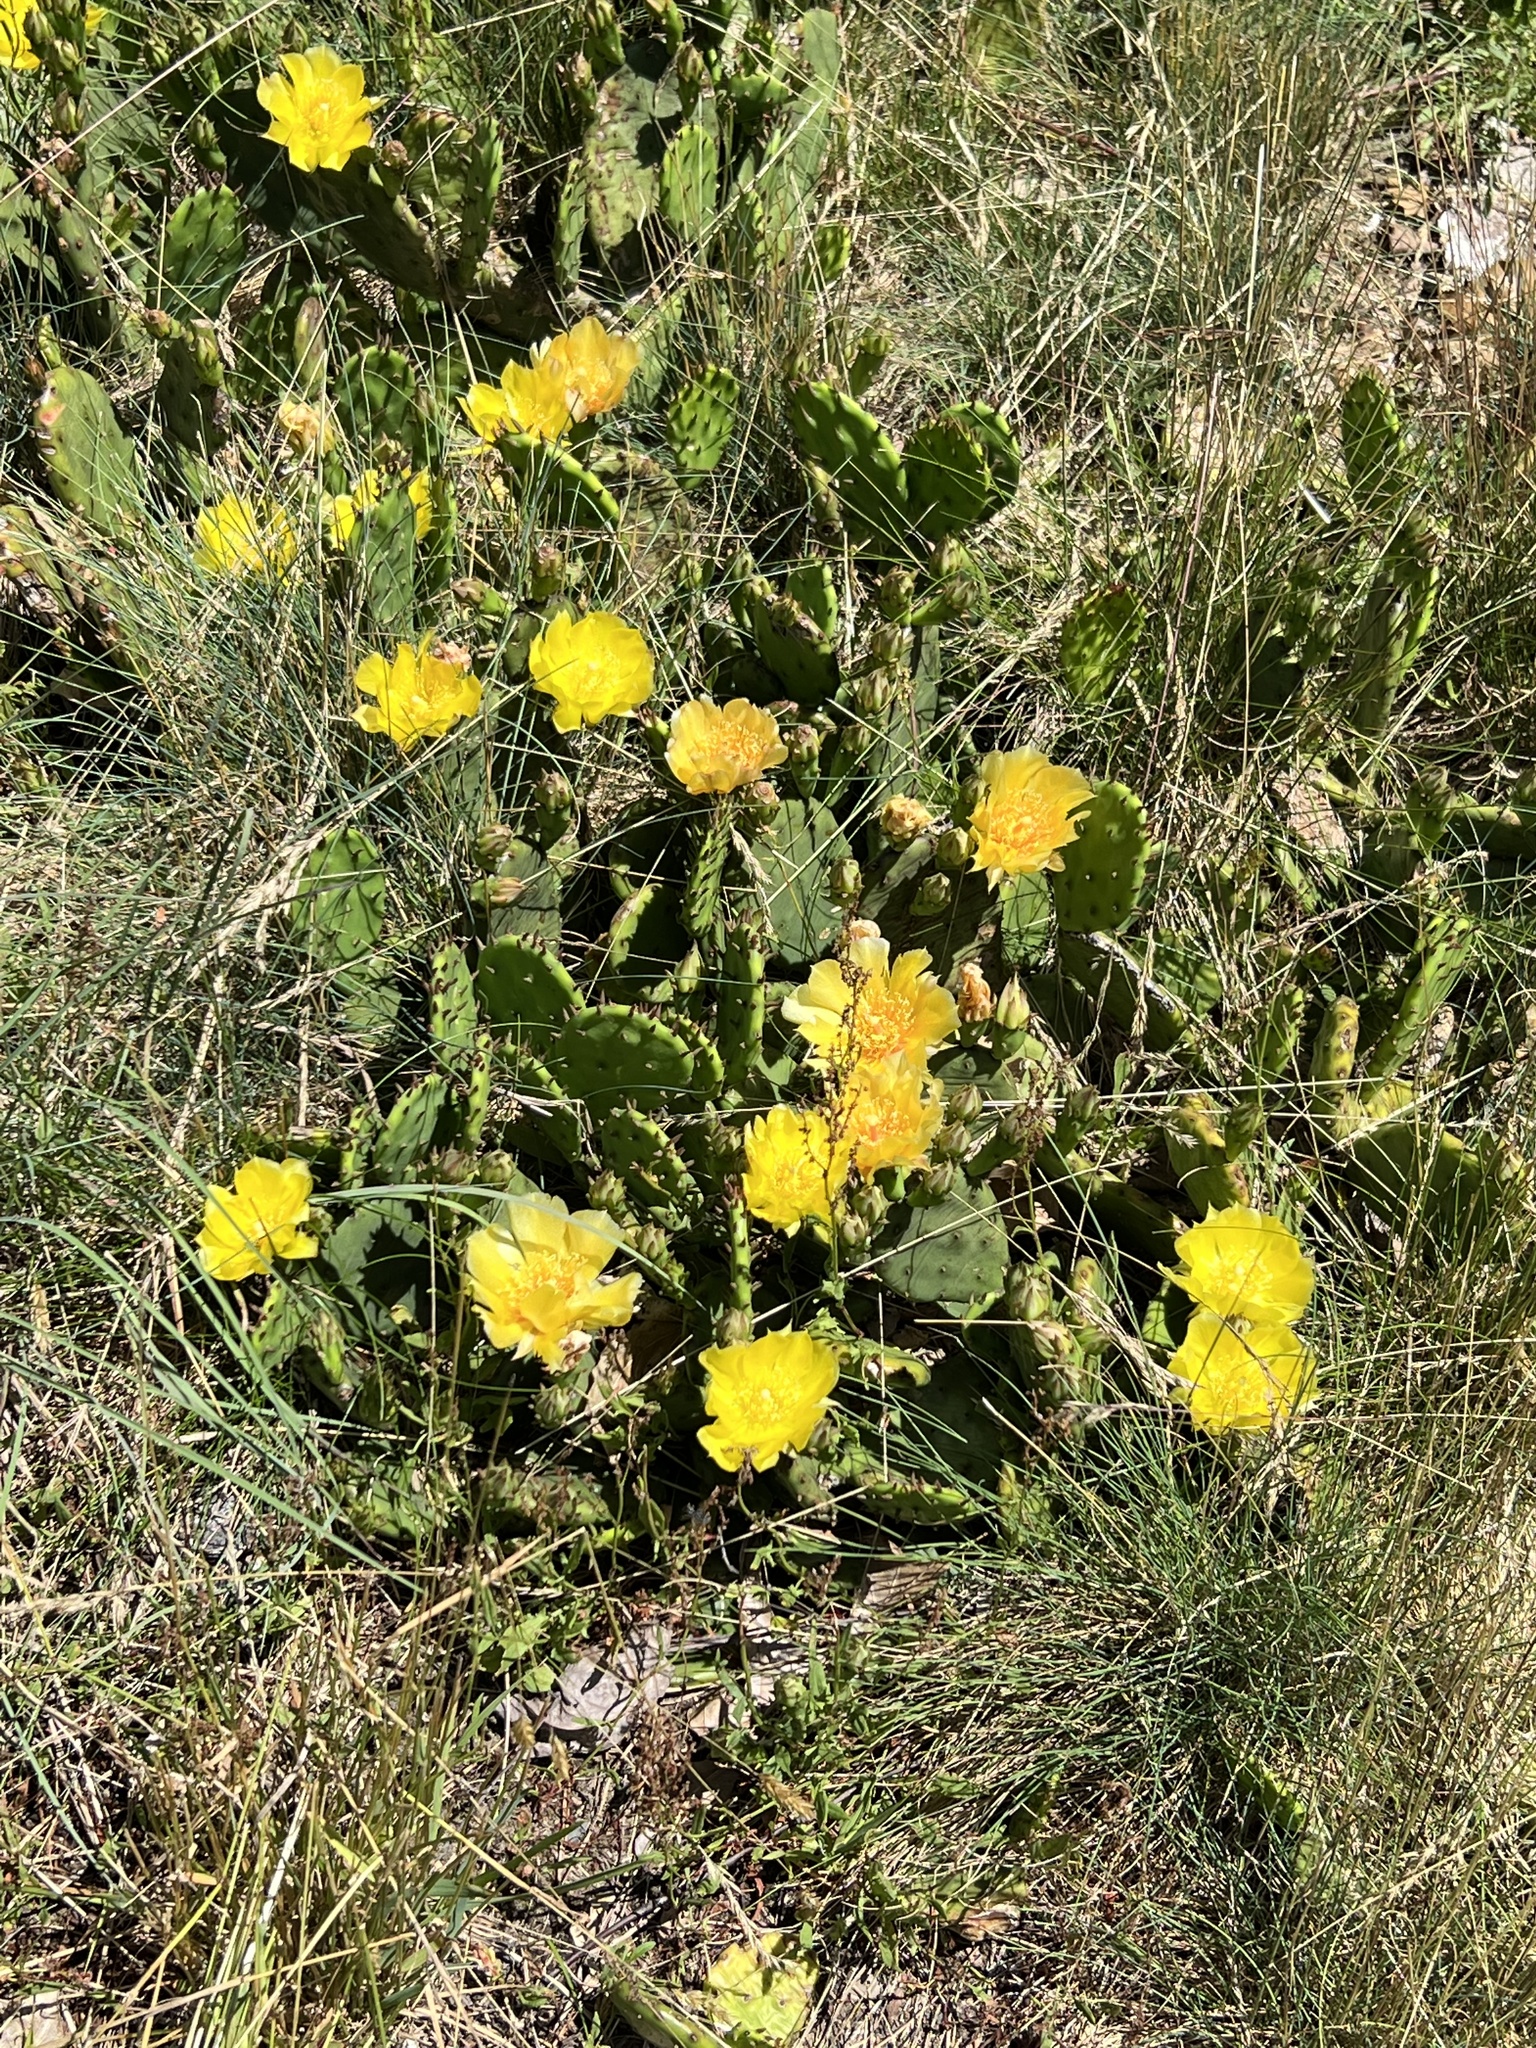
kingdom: Plantae
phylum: Tracheophyta
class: Magnoliopsida
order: Caryophyllales
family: Cactaceae
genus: Opuntia
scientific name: Opuntia humifusa
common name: Eastern prickly-pear
